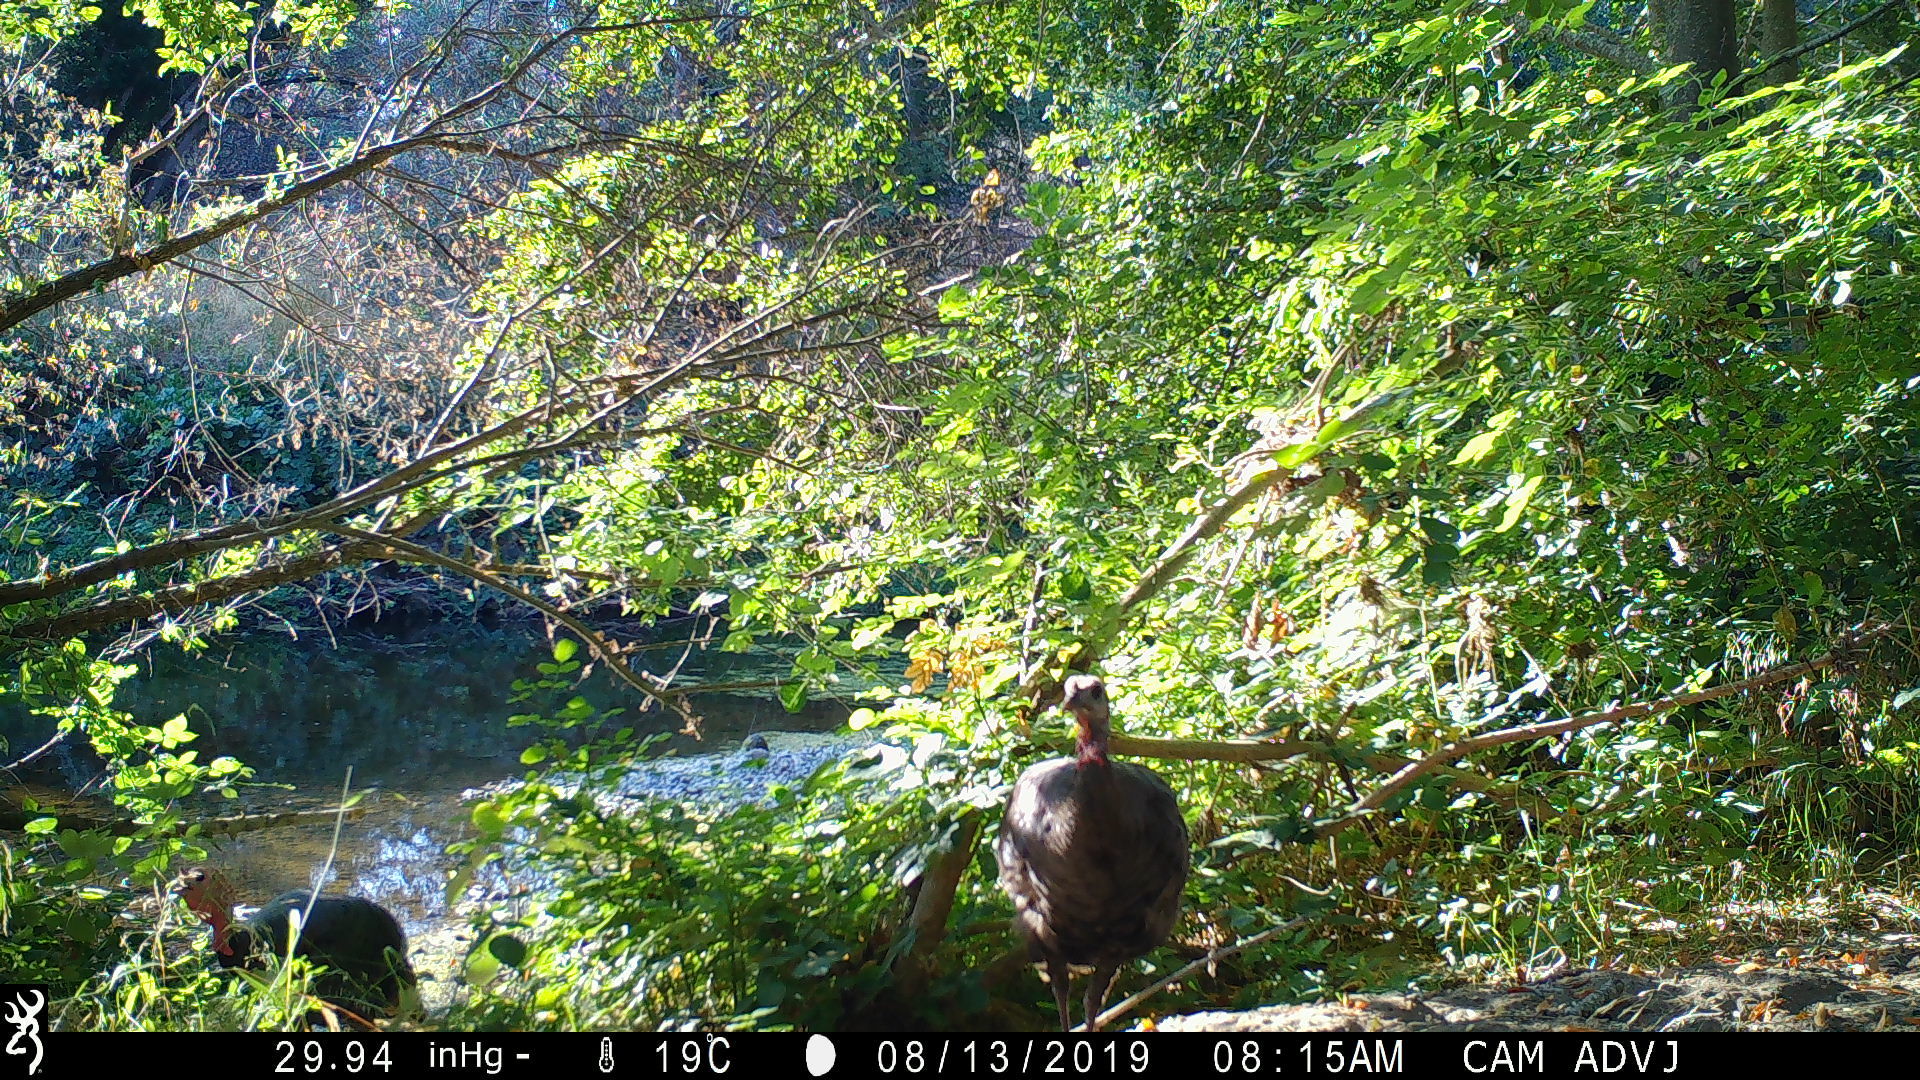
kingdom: Animalia
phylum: Chordata
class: Aves
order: Galliformes
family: Phasianidae
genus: Meleagris
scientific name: Meleagris gallopavo
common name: Wild turkey
